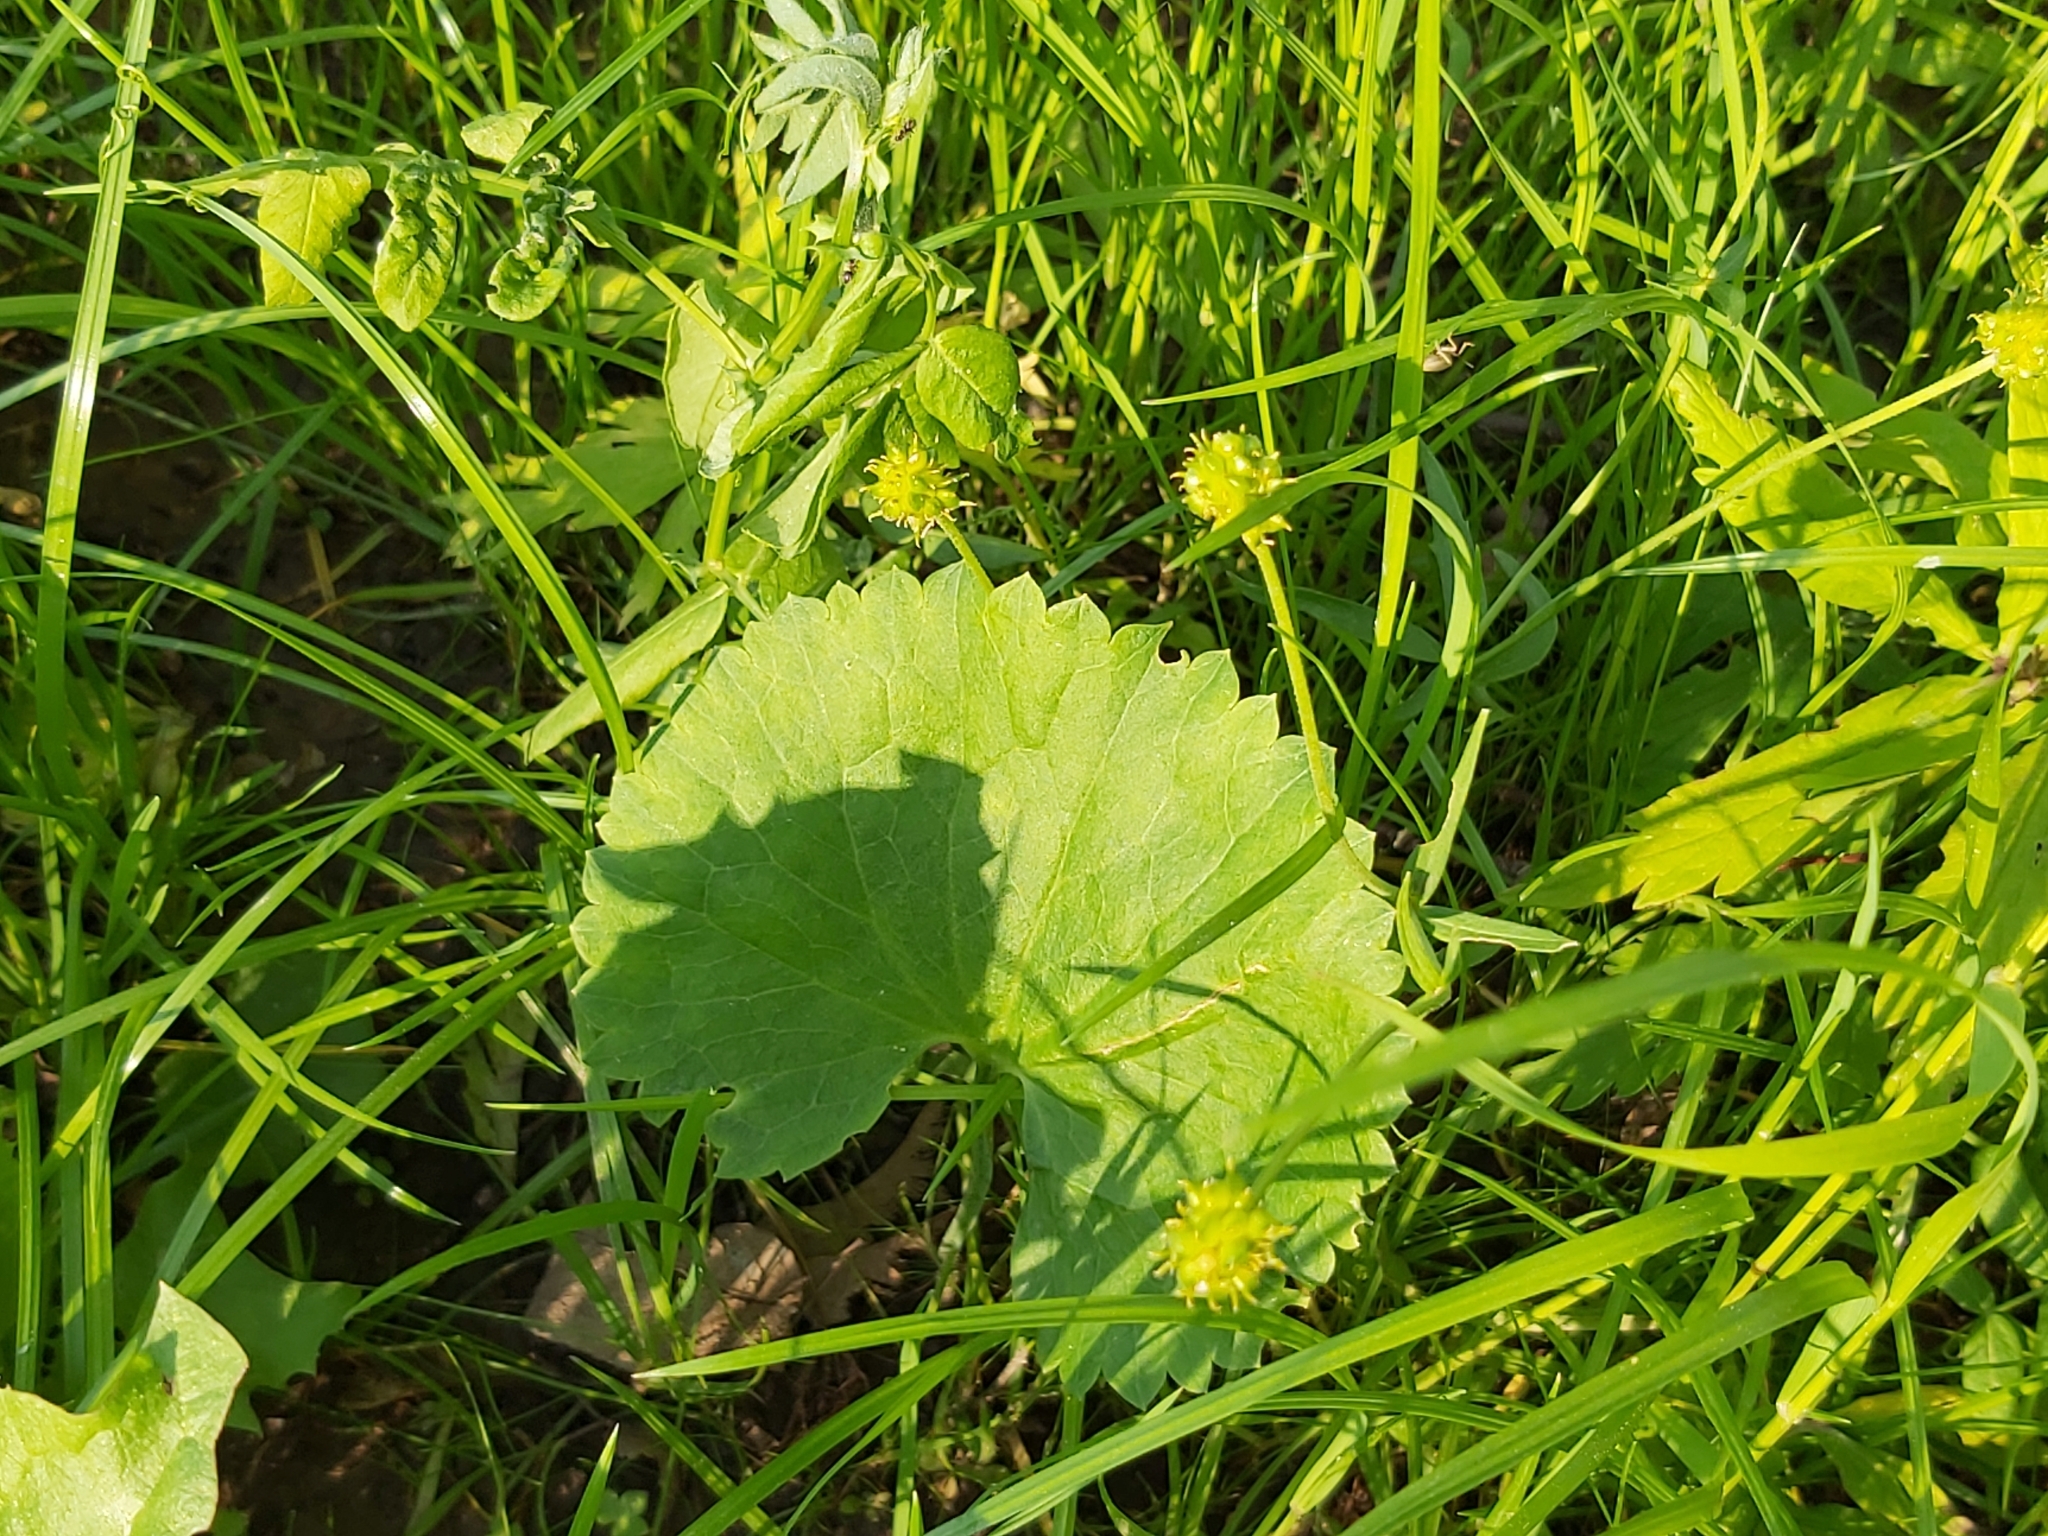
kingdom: Plantae
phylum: Tracheophyta
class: Magnoliopsida
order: Ranunculales
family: Ranunculaceae
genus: Ranunculus
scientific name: Ranunculus cassubicus
